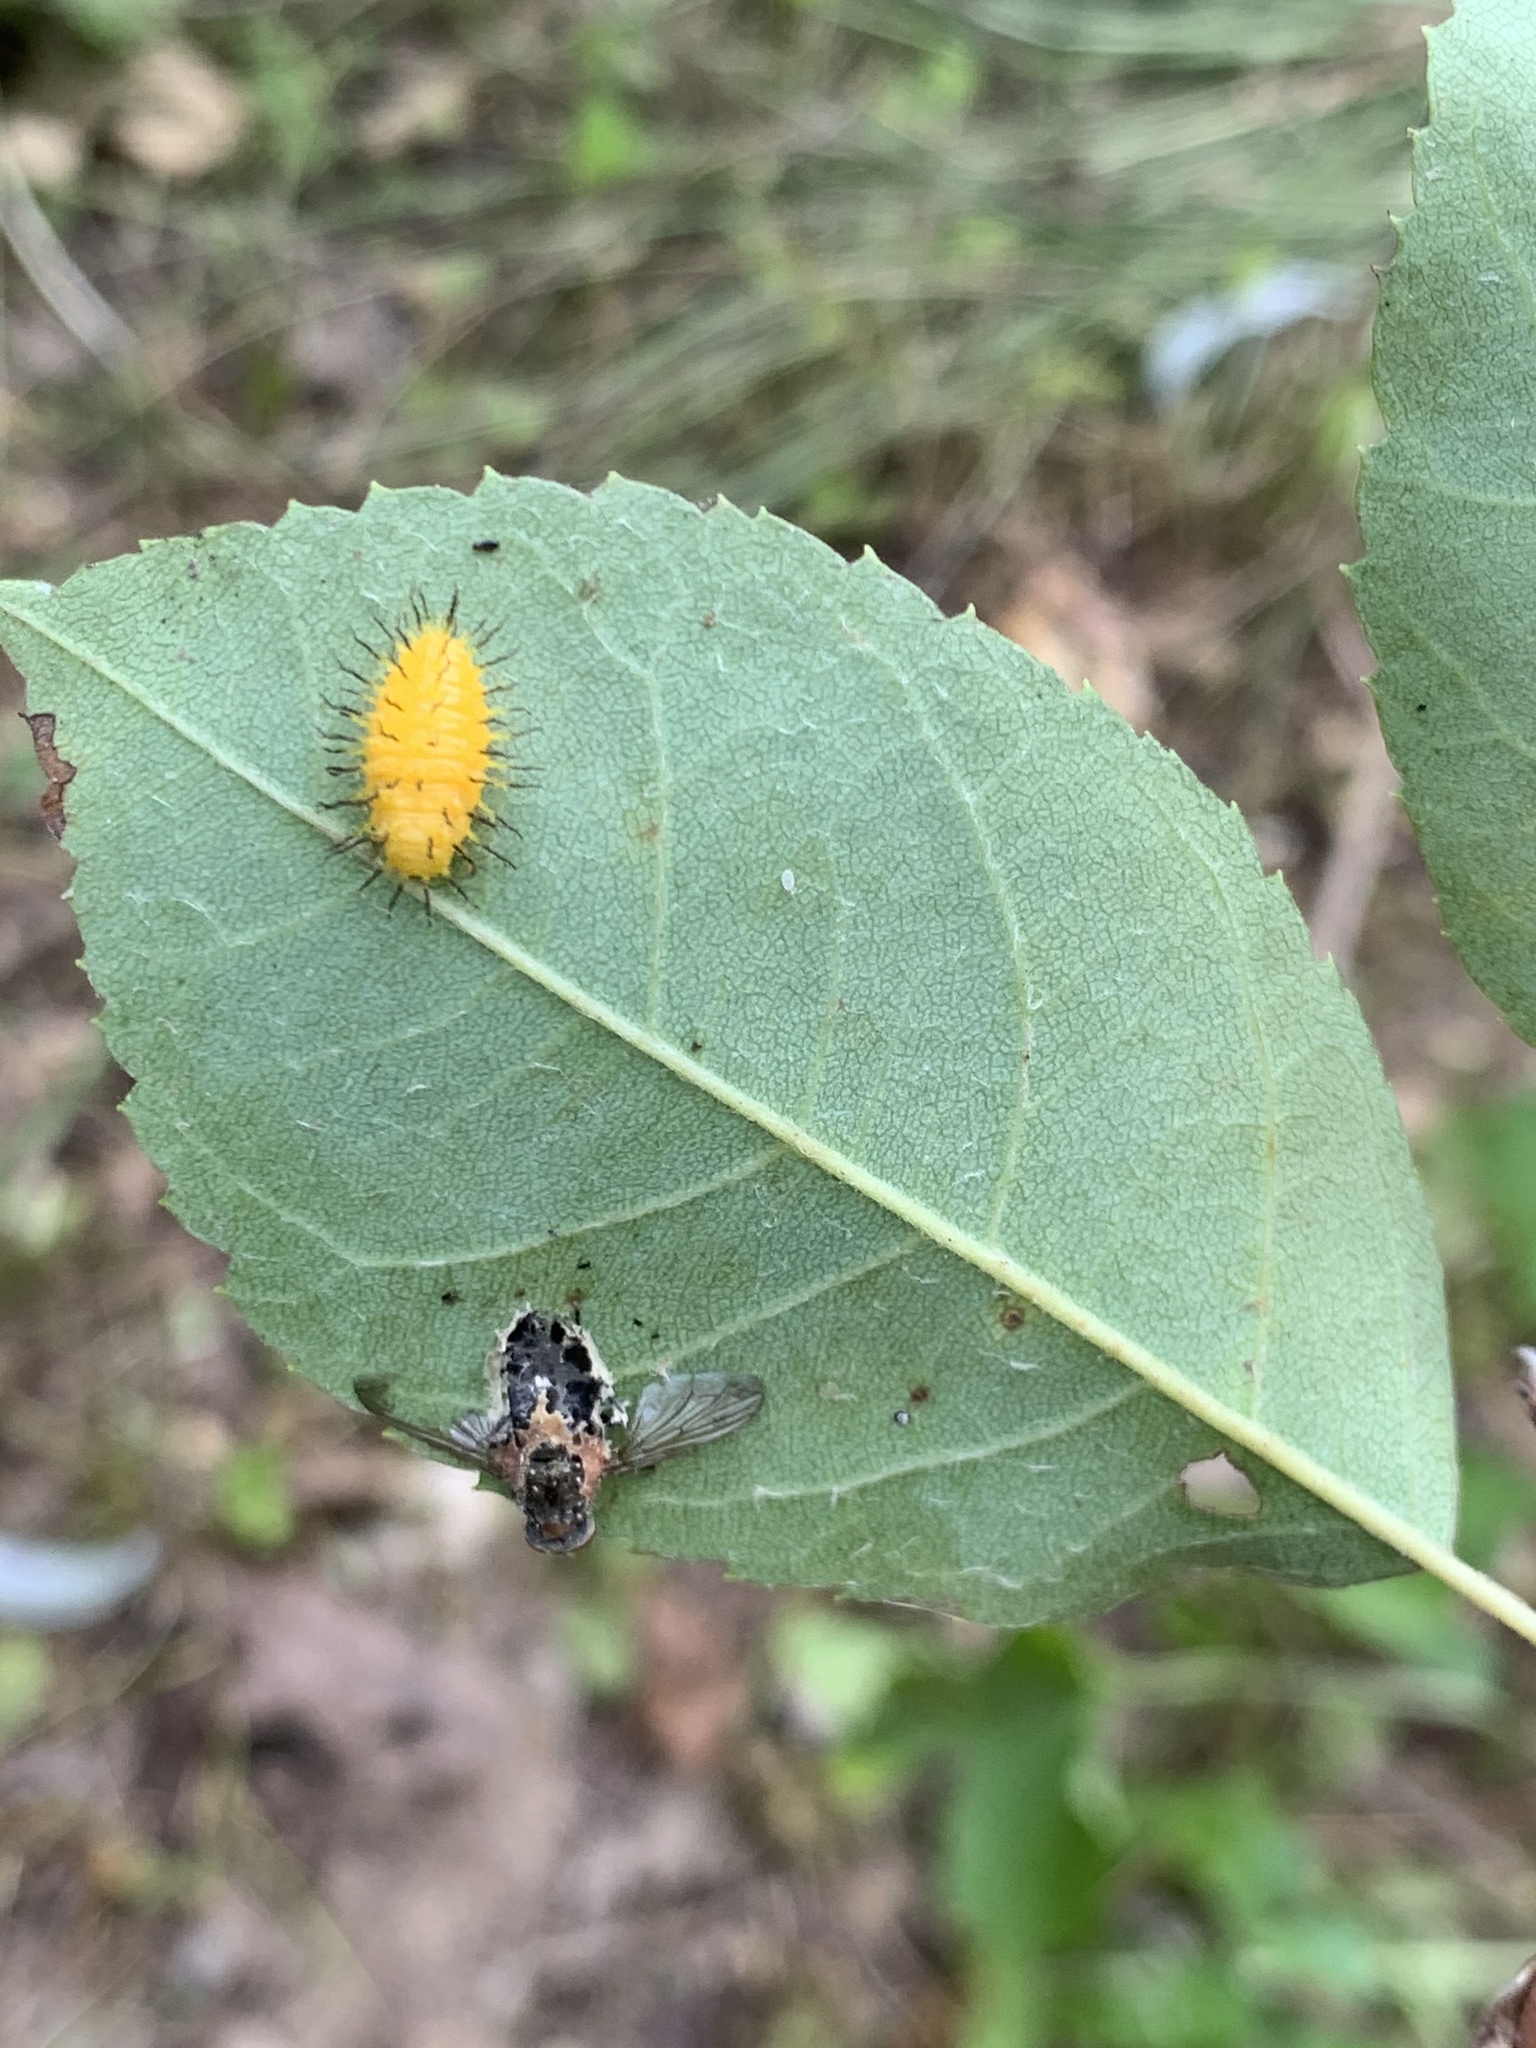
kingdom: Animalia
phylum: Arthropoda
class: Insecta
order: Coleoptera
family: Coccinellidae
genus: Epilachna
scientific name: Epilachna borealis
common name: Squash beetle
